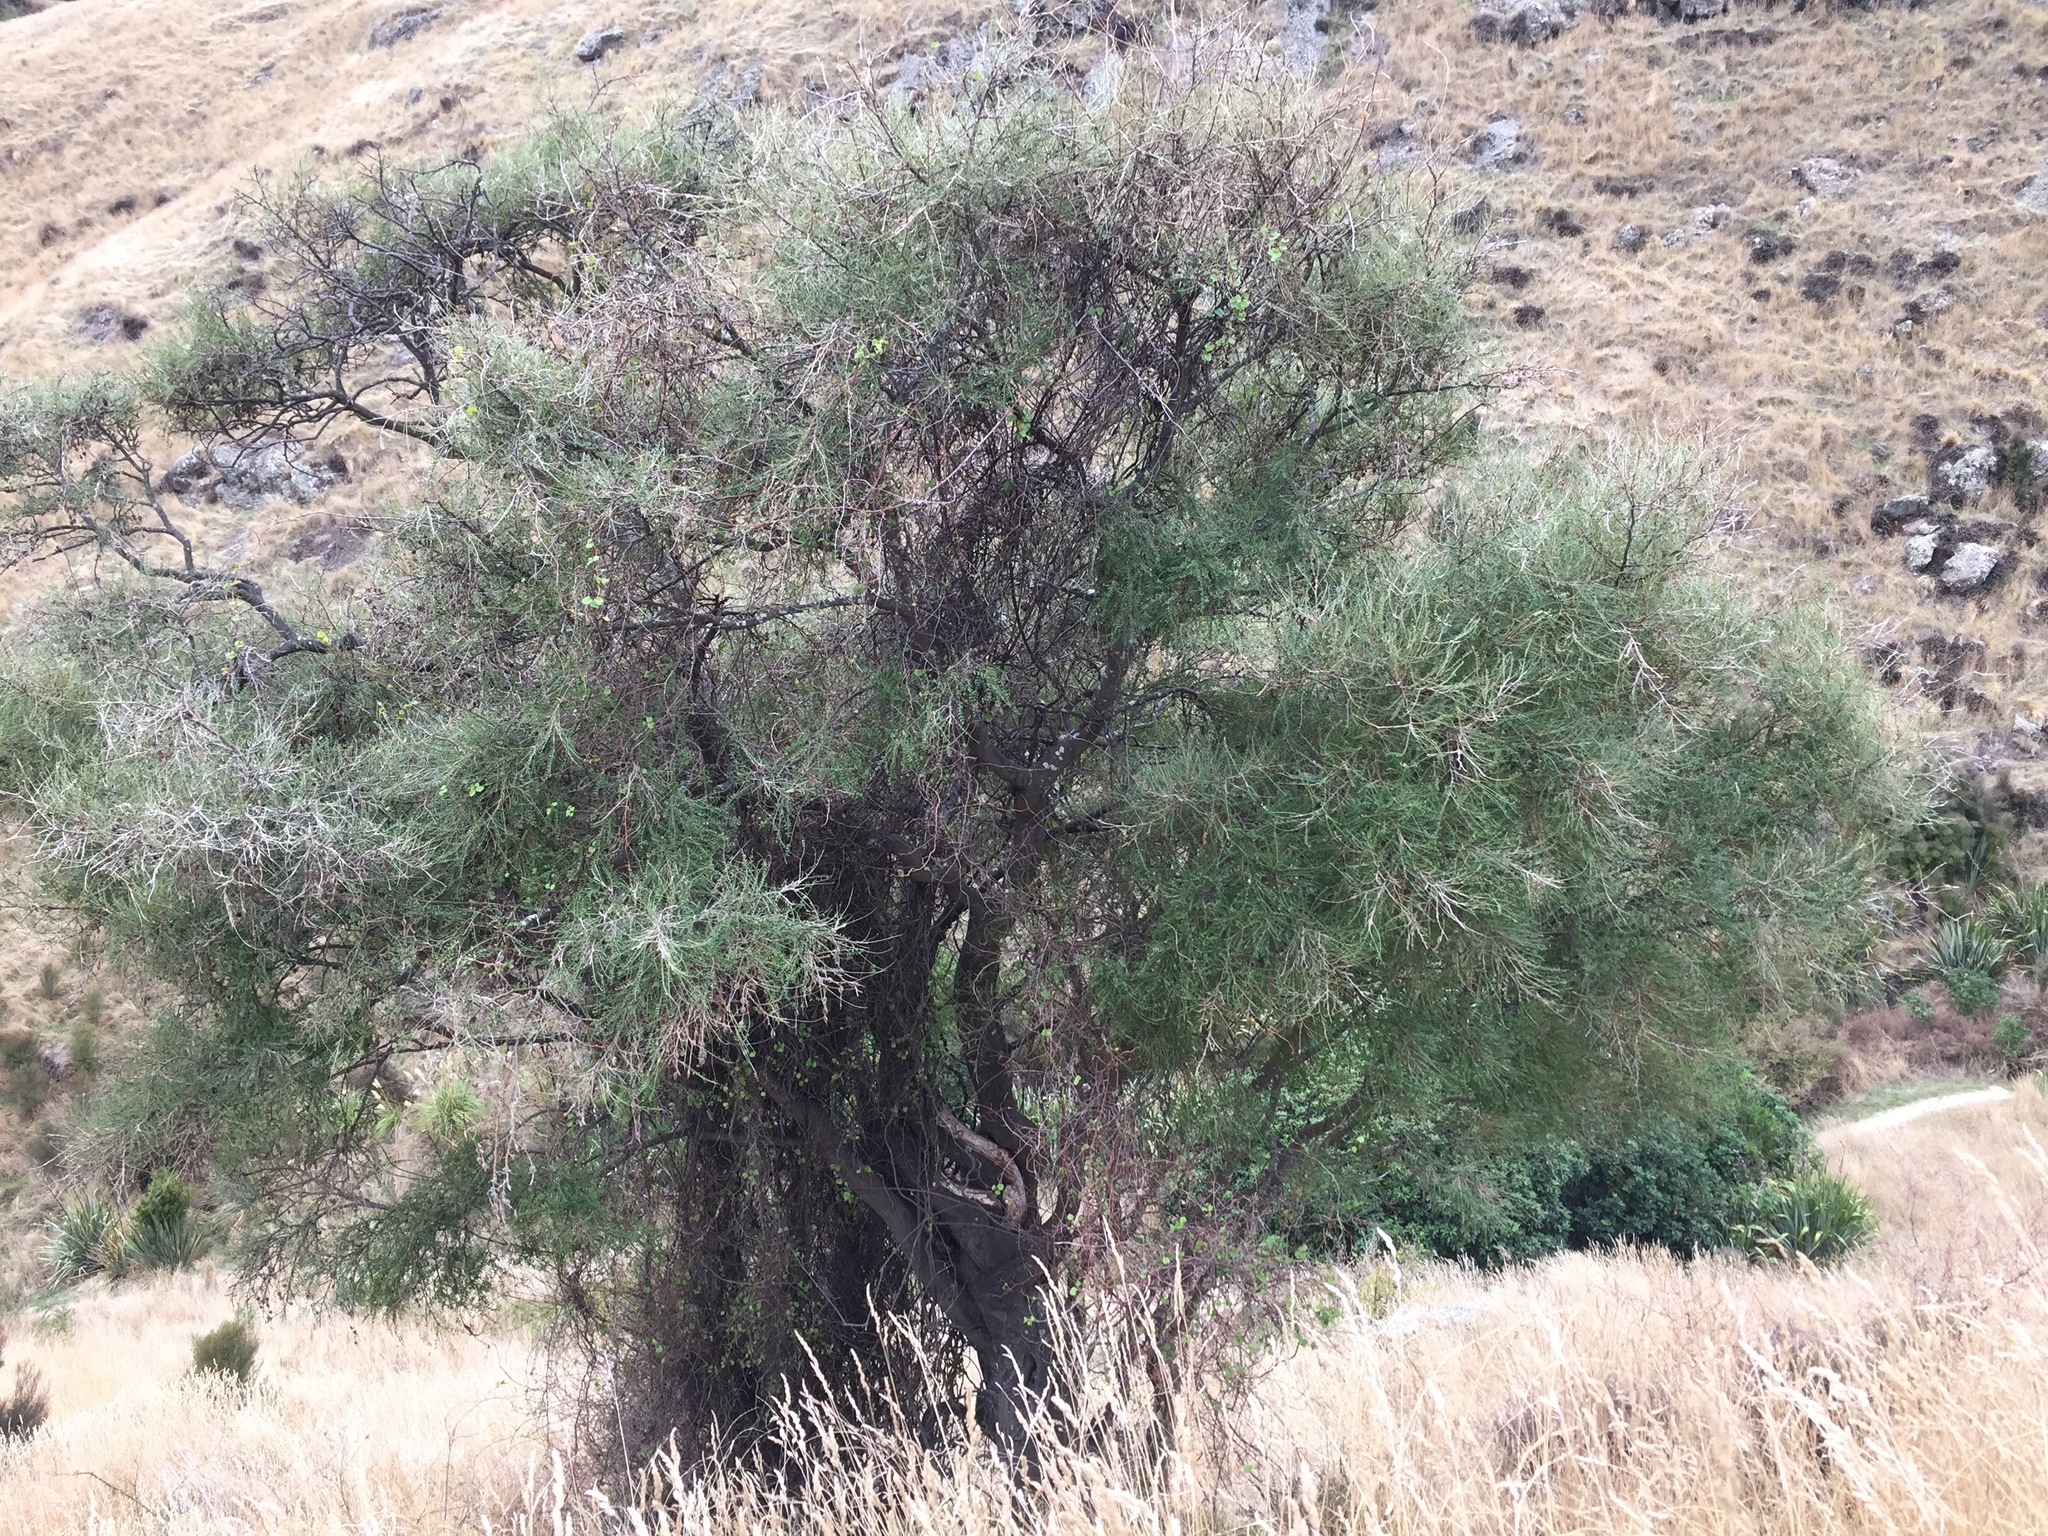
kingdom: Plantae
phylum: Tracheophyta
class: Magnoliopsida
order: Fabales
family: Fabaceae
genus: Sophora
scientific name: Sophora microphylla
